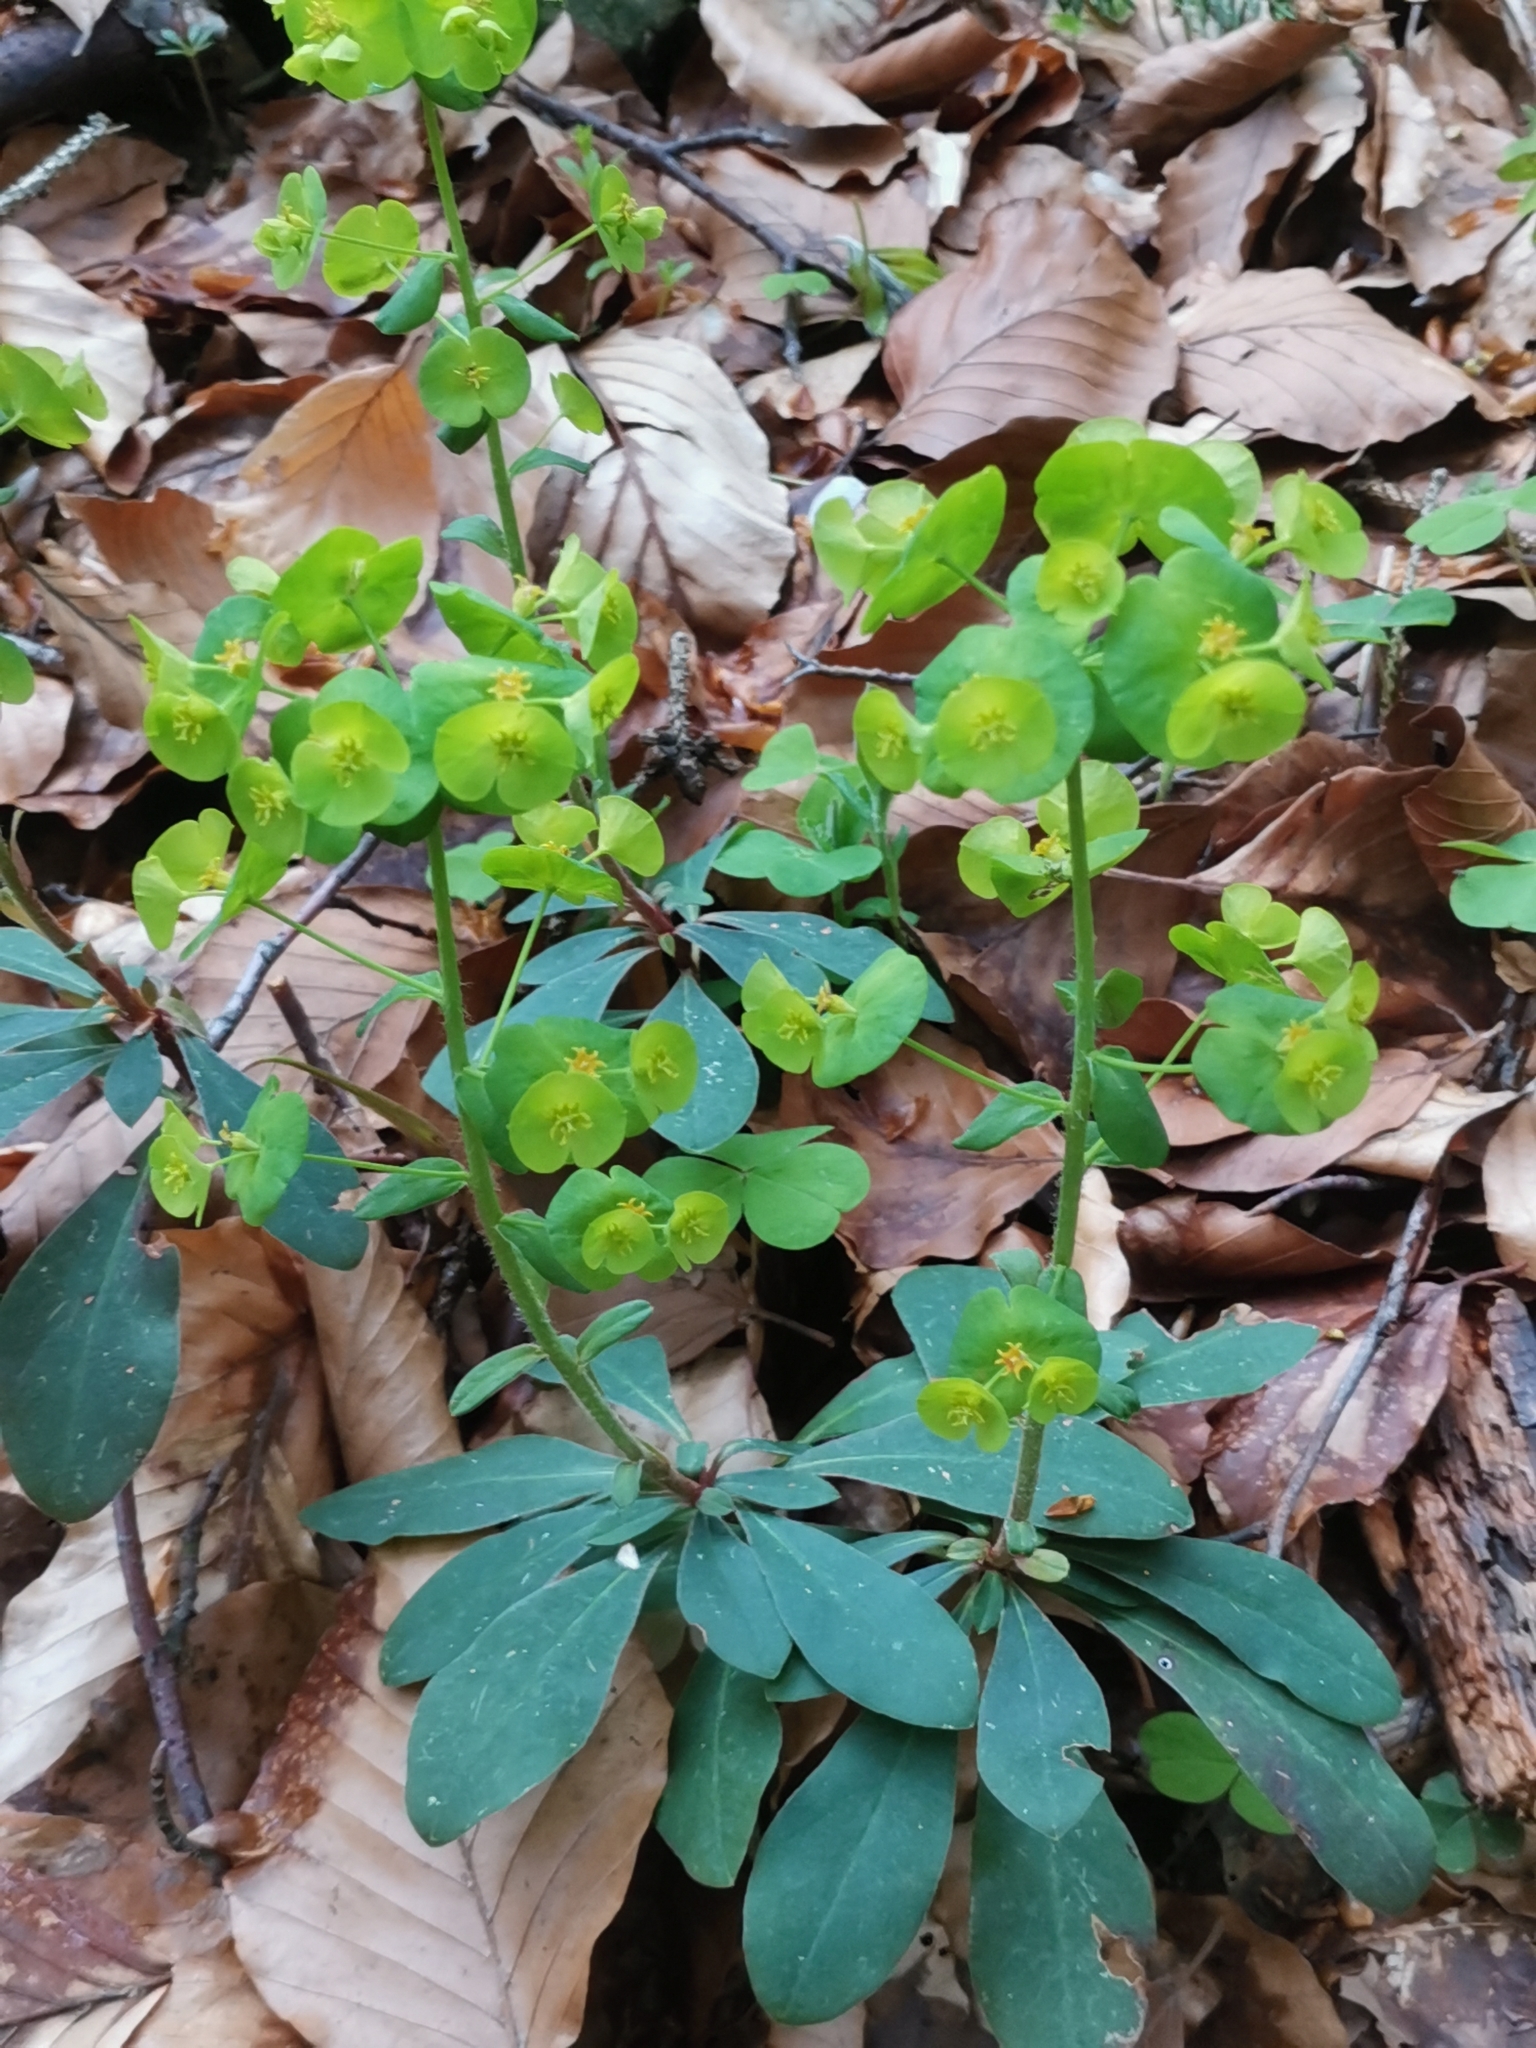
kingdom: Plantae
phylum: Tracheophyta
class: Magnoliopsida
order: Malpighiales
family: Euphorbiaceae
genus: Euphorbia
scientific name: Euphorbia amygdaloides
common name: Wood spurge
